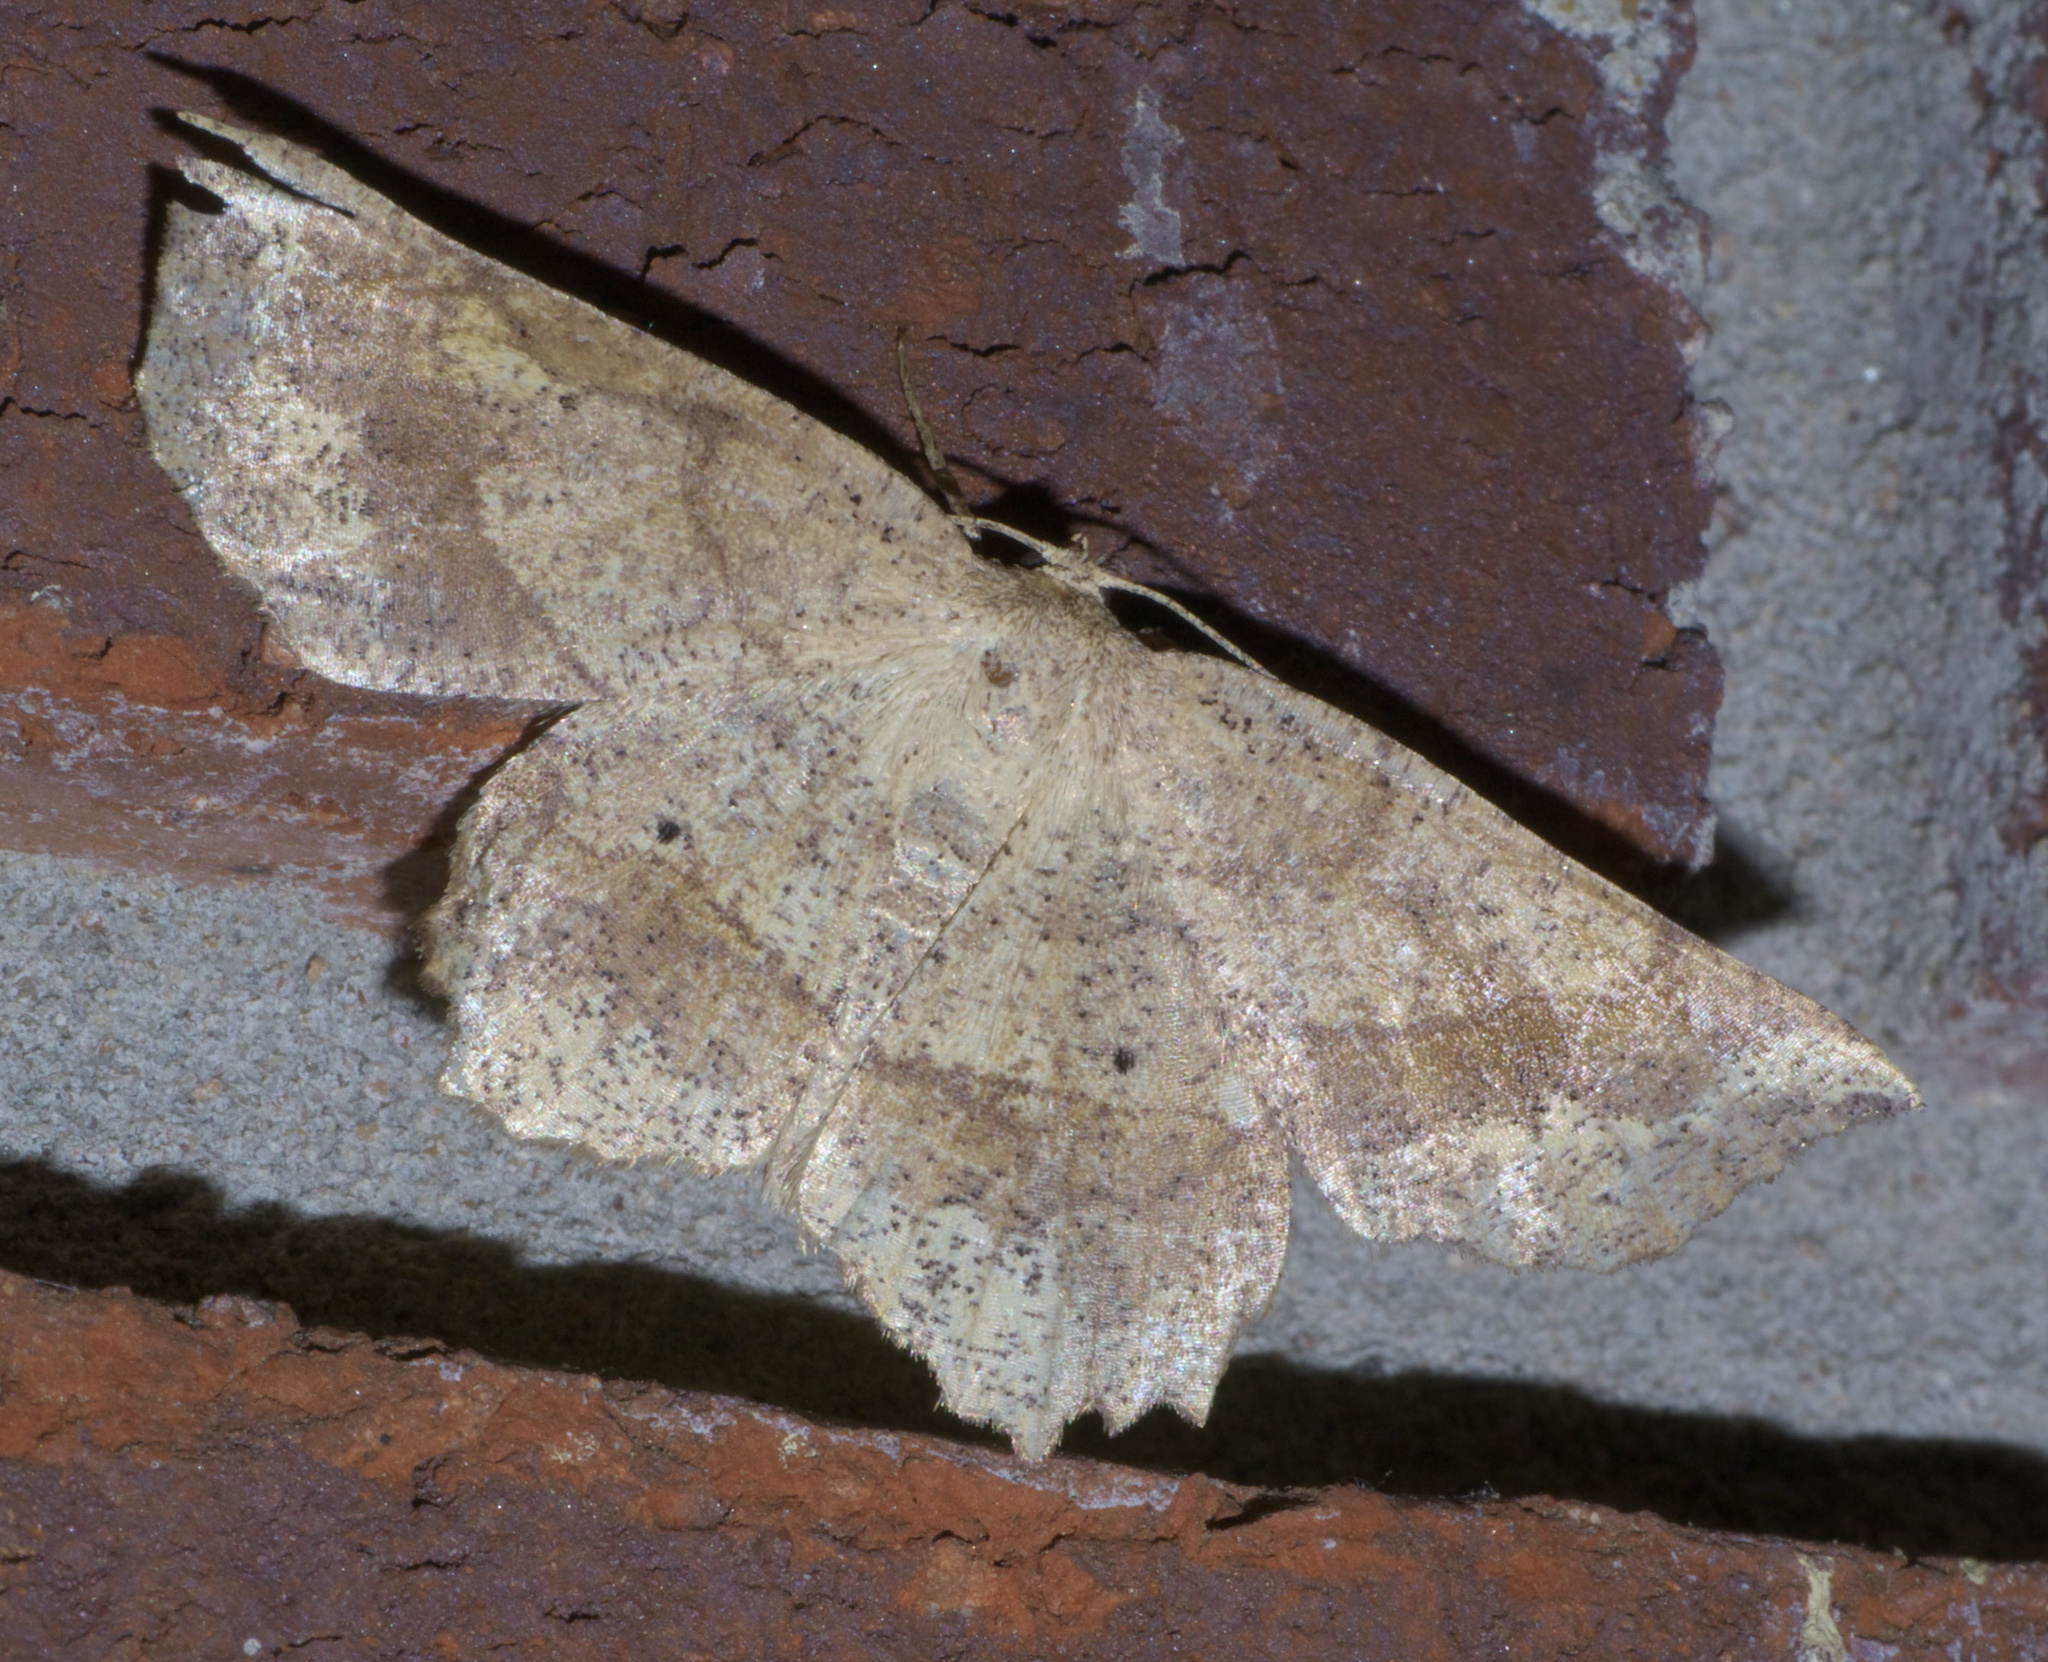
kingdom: Animalia
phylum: Arthropoda
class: Insecta
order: Lepidoptera
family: Geometridae
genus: Euchlaena
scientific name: Euchlaena
